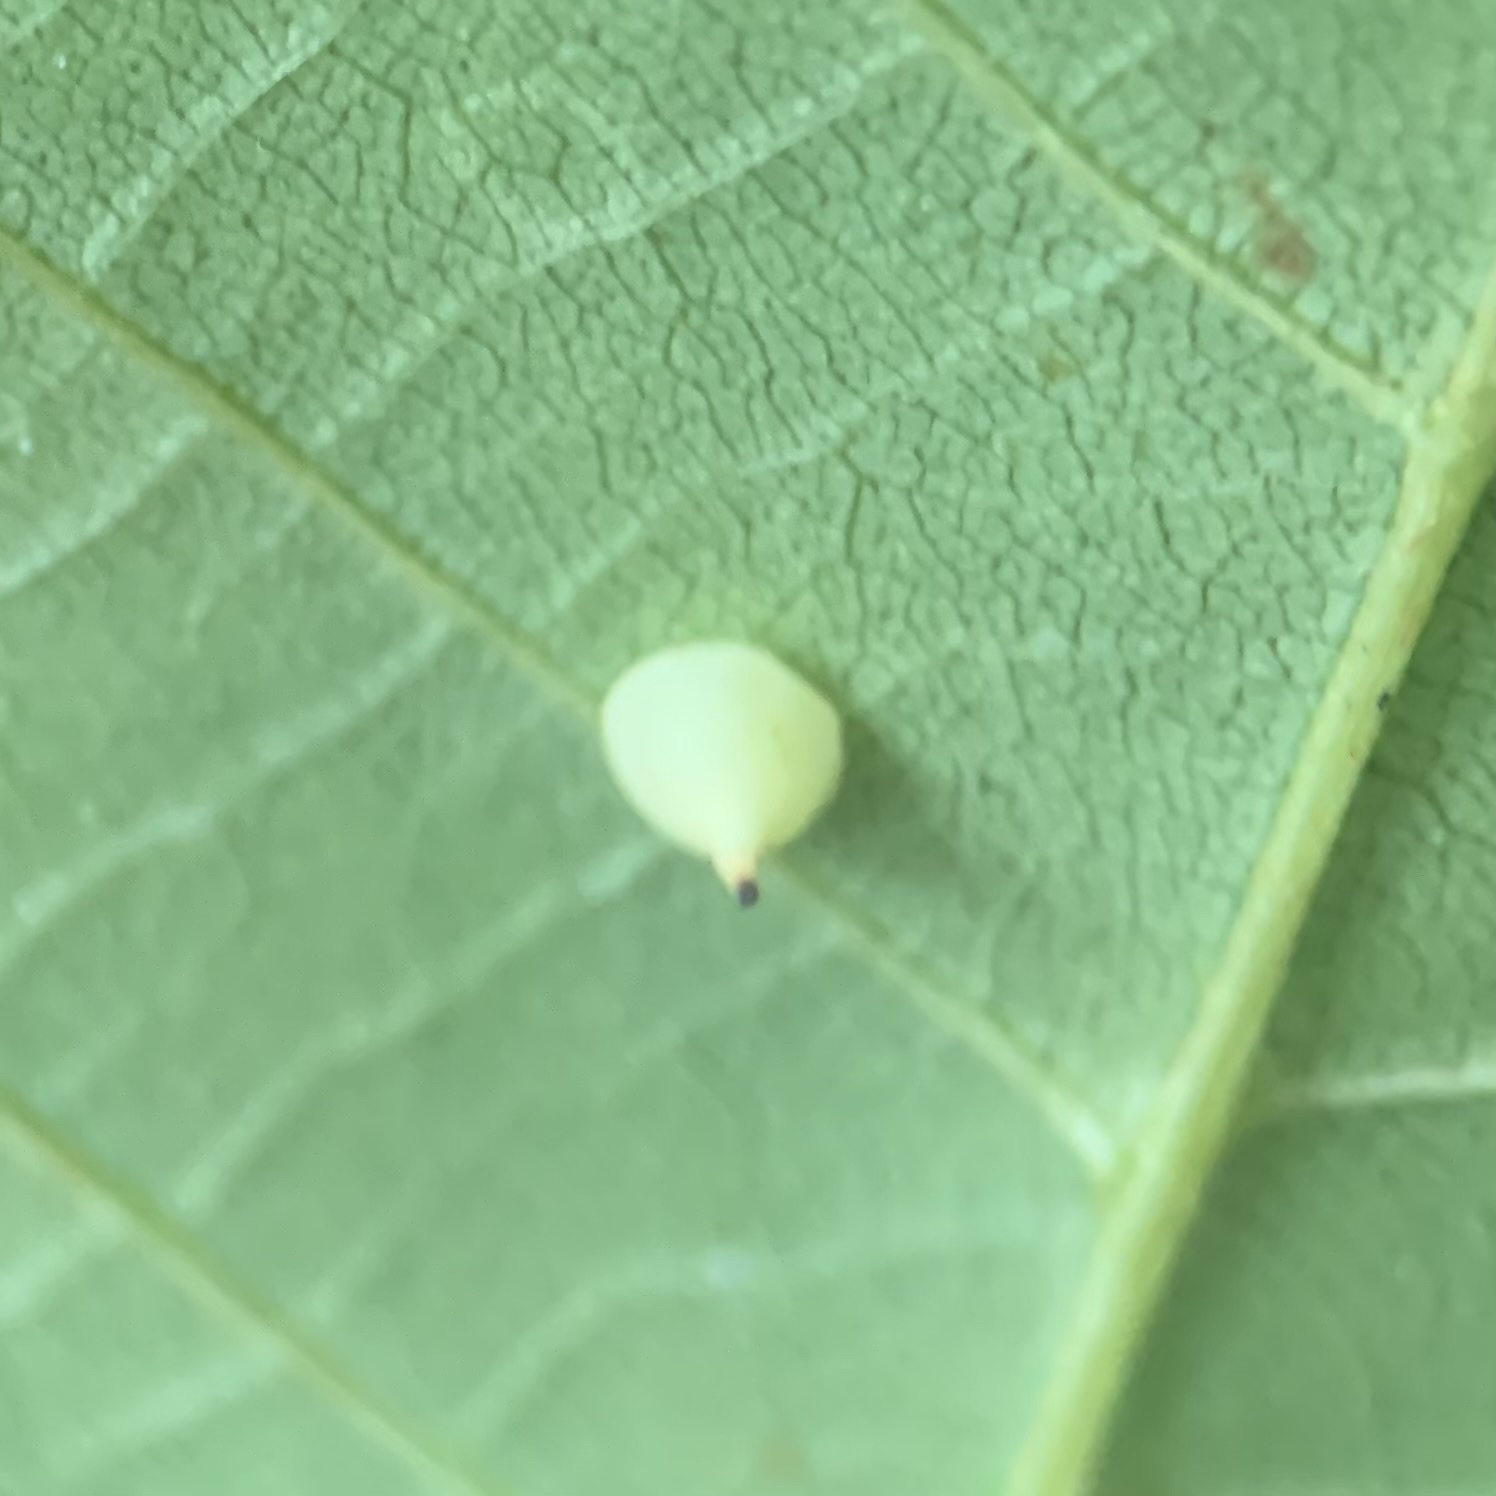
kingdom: Animalia
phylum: Arthropoda
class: Insecta
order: Diptera
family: Cecidomyiidae
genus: Caryomyia
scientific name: Caryomyia sanguinolenta
